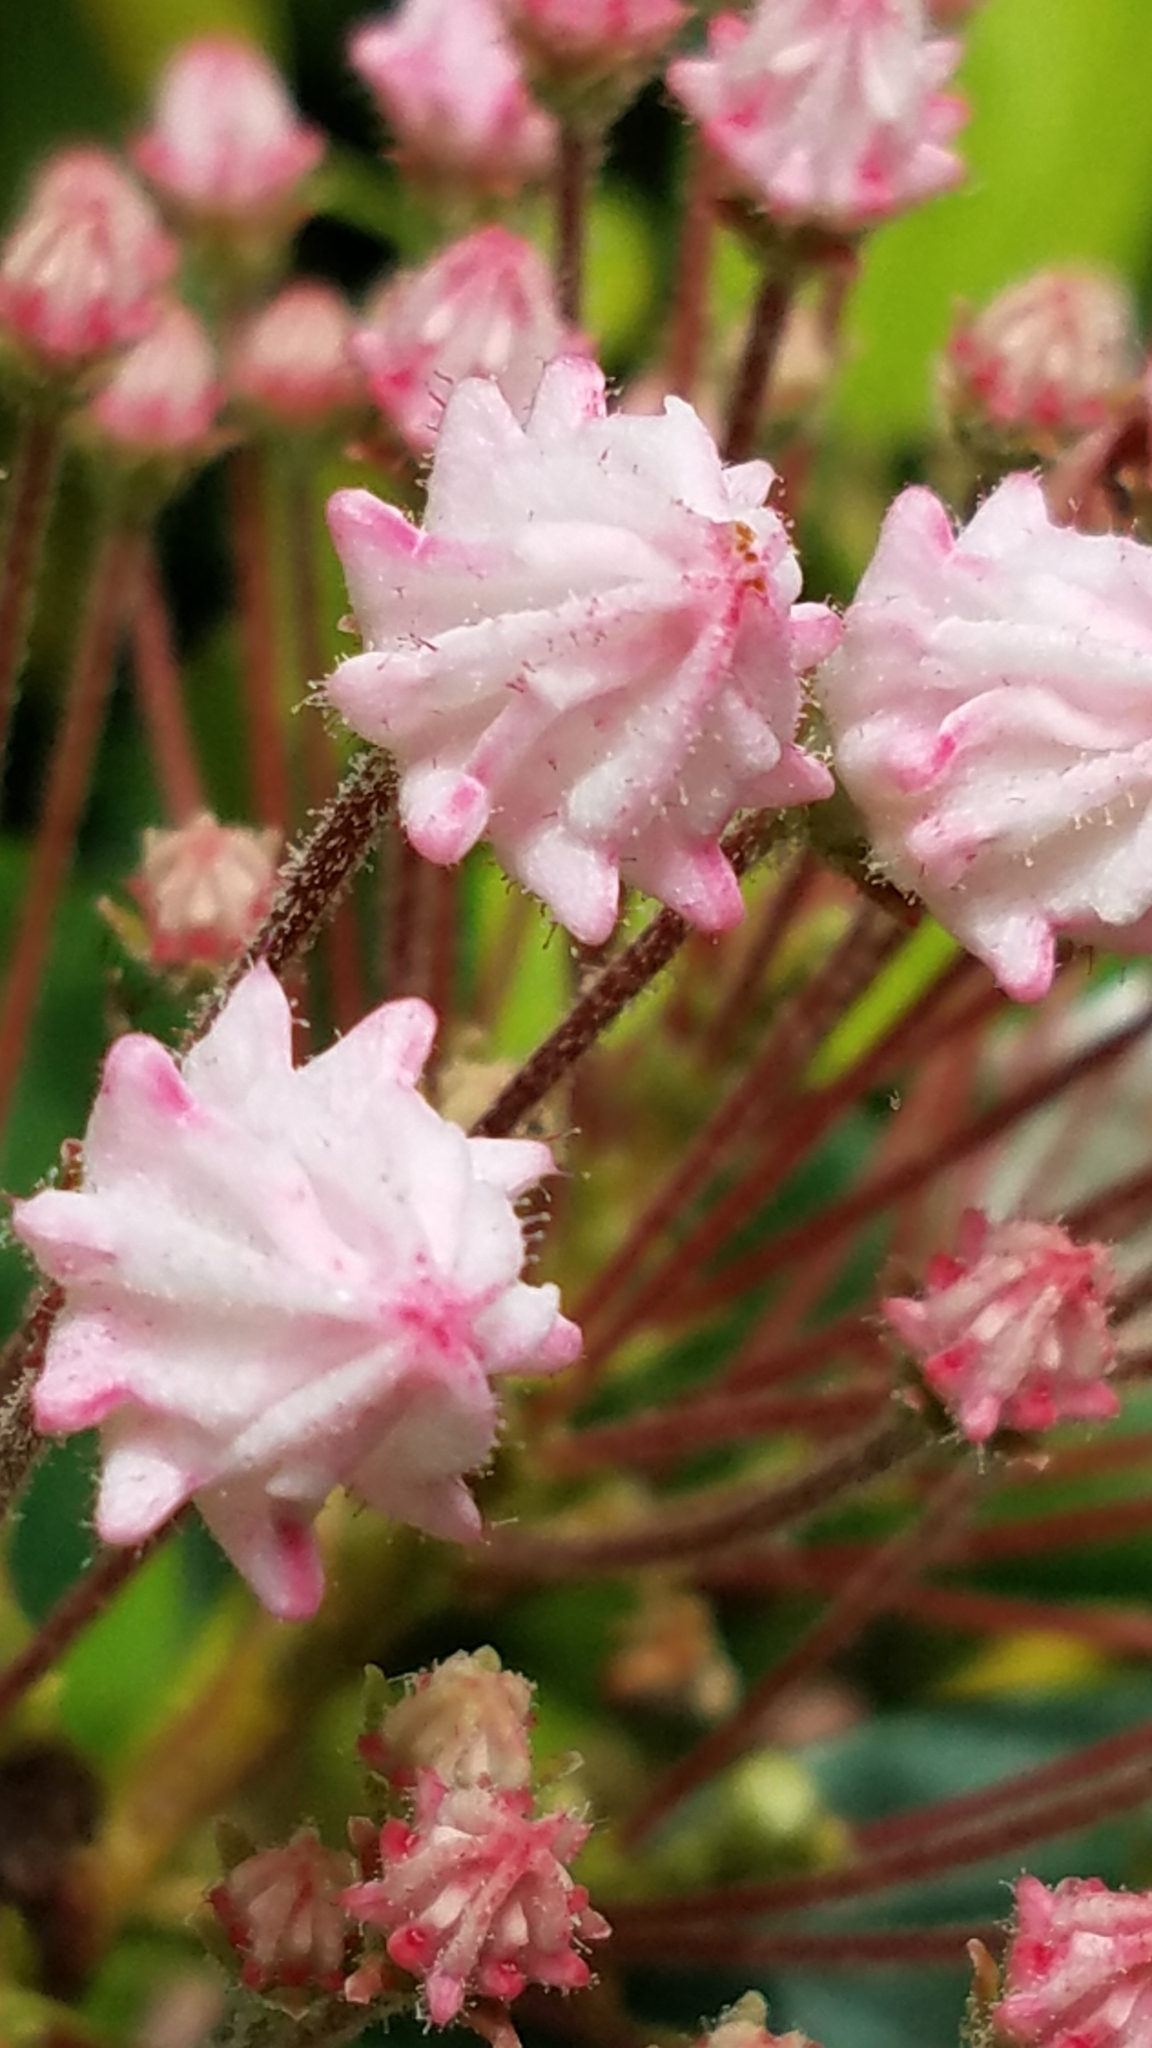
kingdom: Plantae
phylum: Tracheophyta
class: Magnoliopsida
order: Ericales
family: Ericaceae
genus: Kalmia
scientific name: Kalmia latifolia
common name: Mountain-laurel
